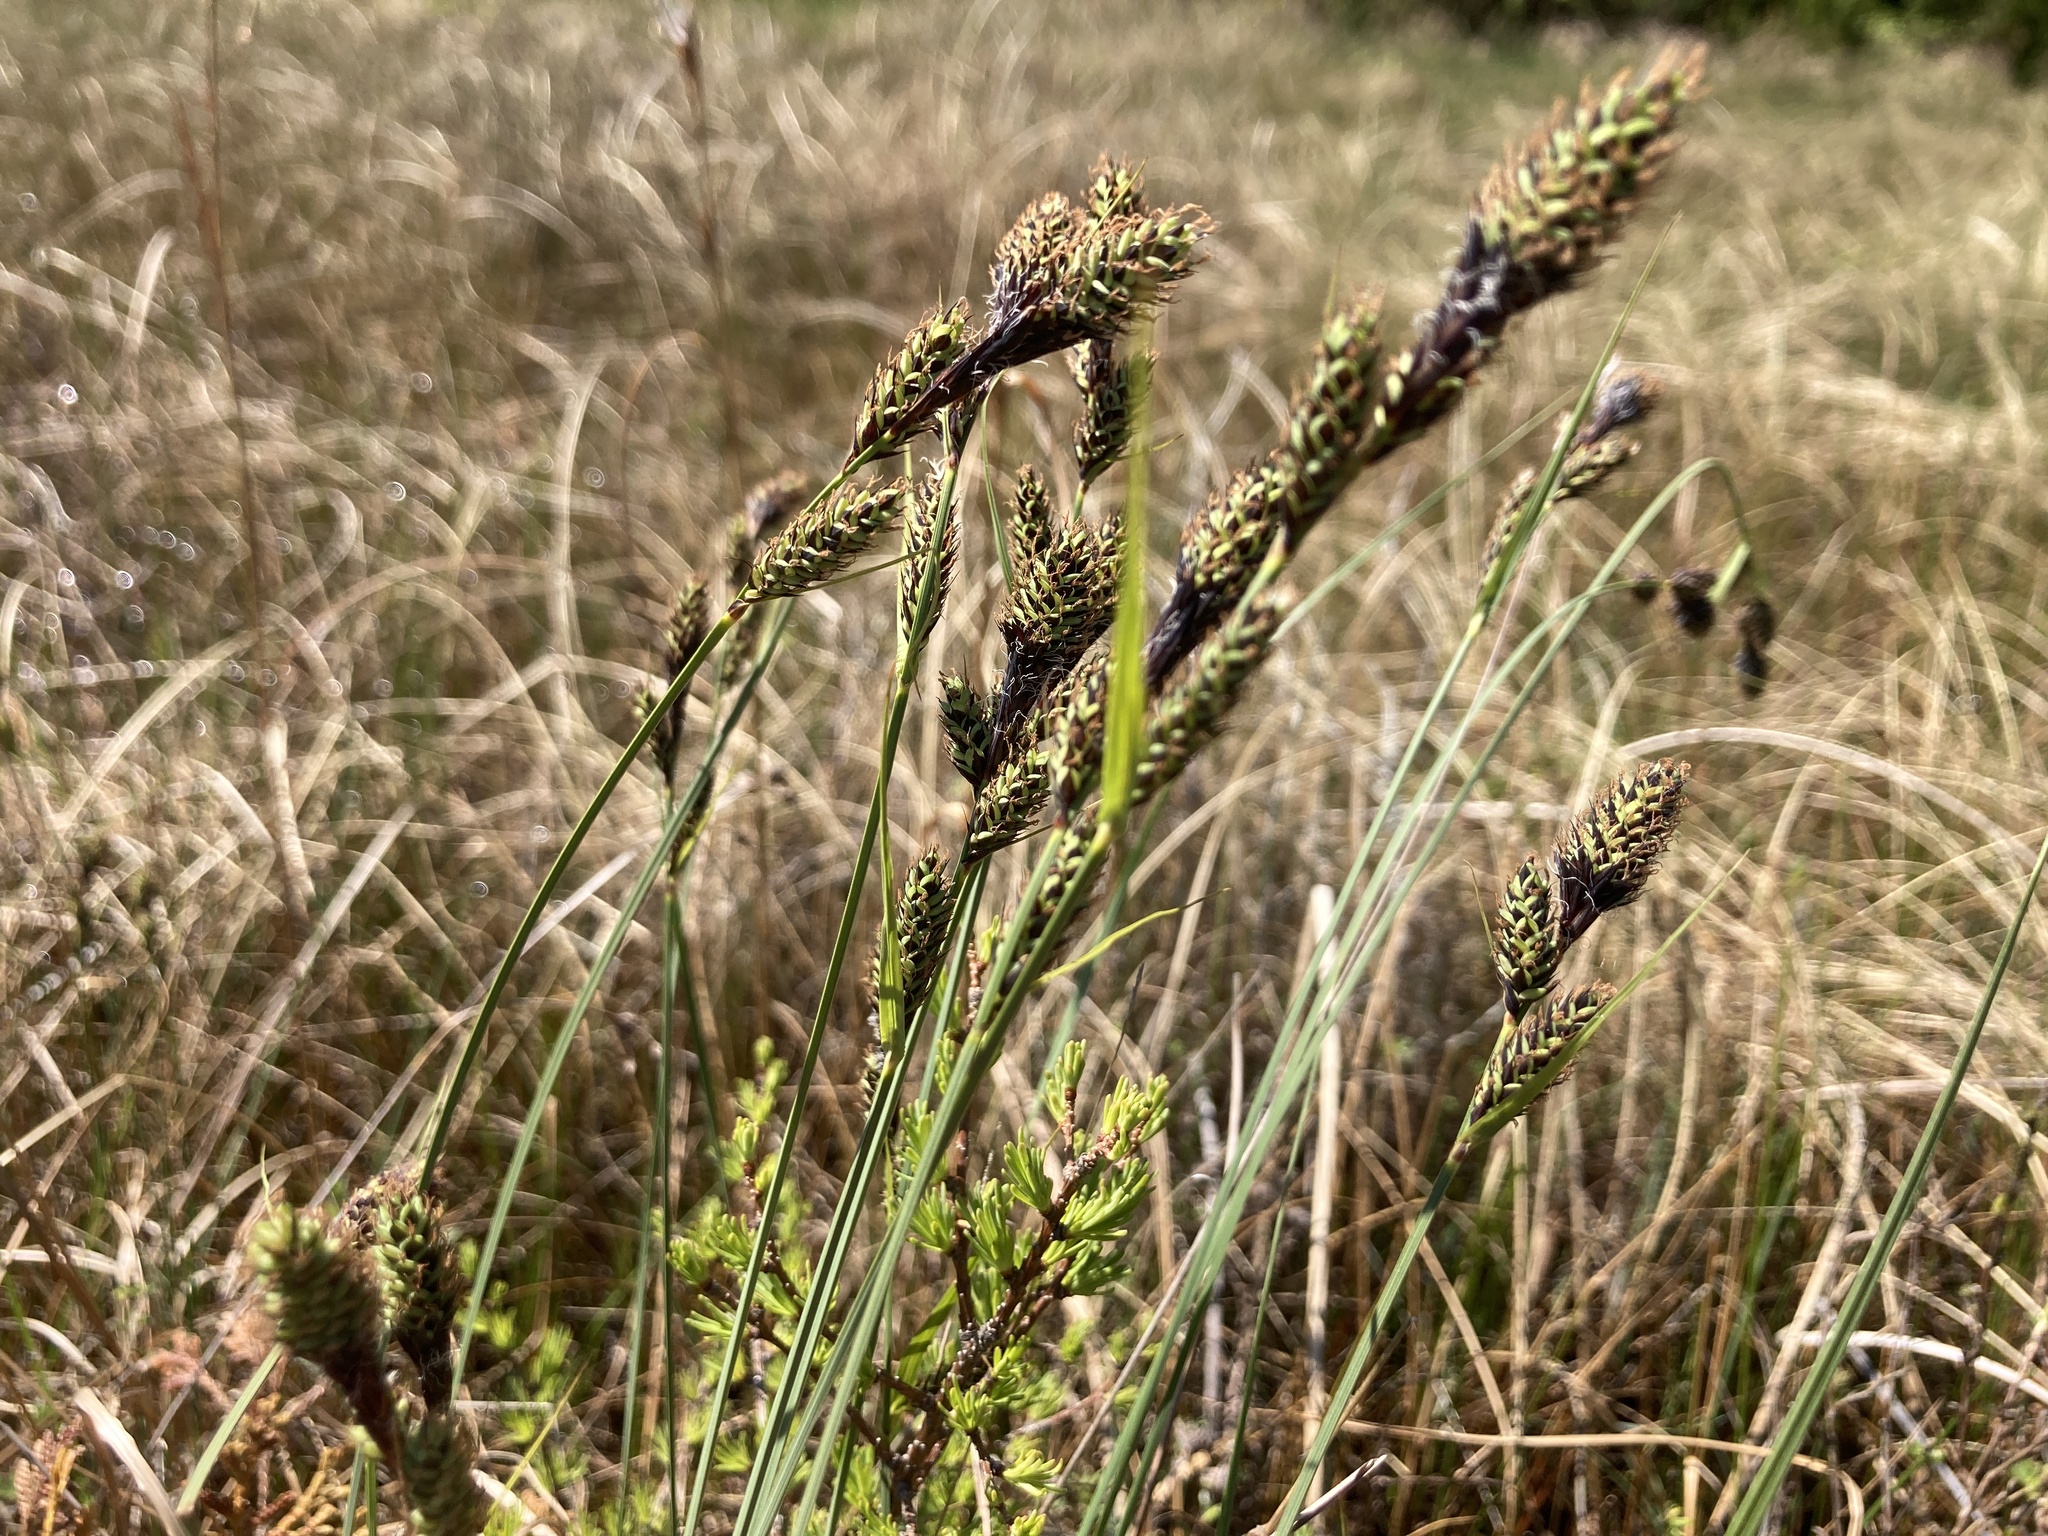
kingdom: Plantae
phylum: Tracheophyta
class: Liliopsida
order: Poales
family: Cyperaceae
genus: Carex
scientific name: Carex buxbaumii
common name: Club sedge
